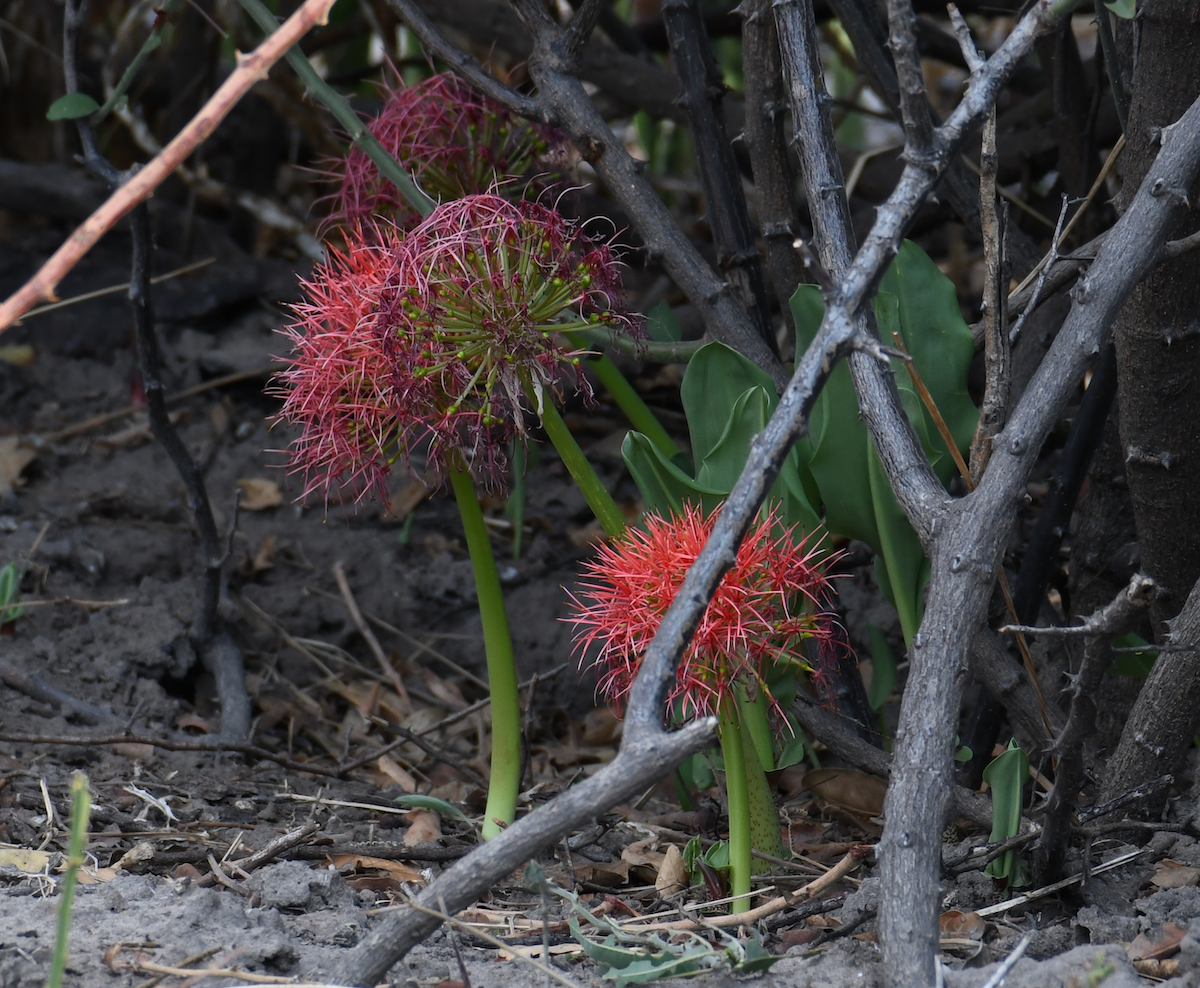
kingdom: Plantae
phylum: Tracheophyta
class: Liliopsida
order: Asparagales
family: Amaryllidaceae
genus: Scadoxus
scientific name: Scadoxus multiflorus
